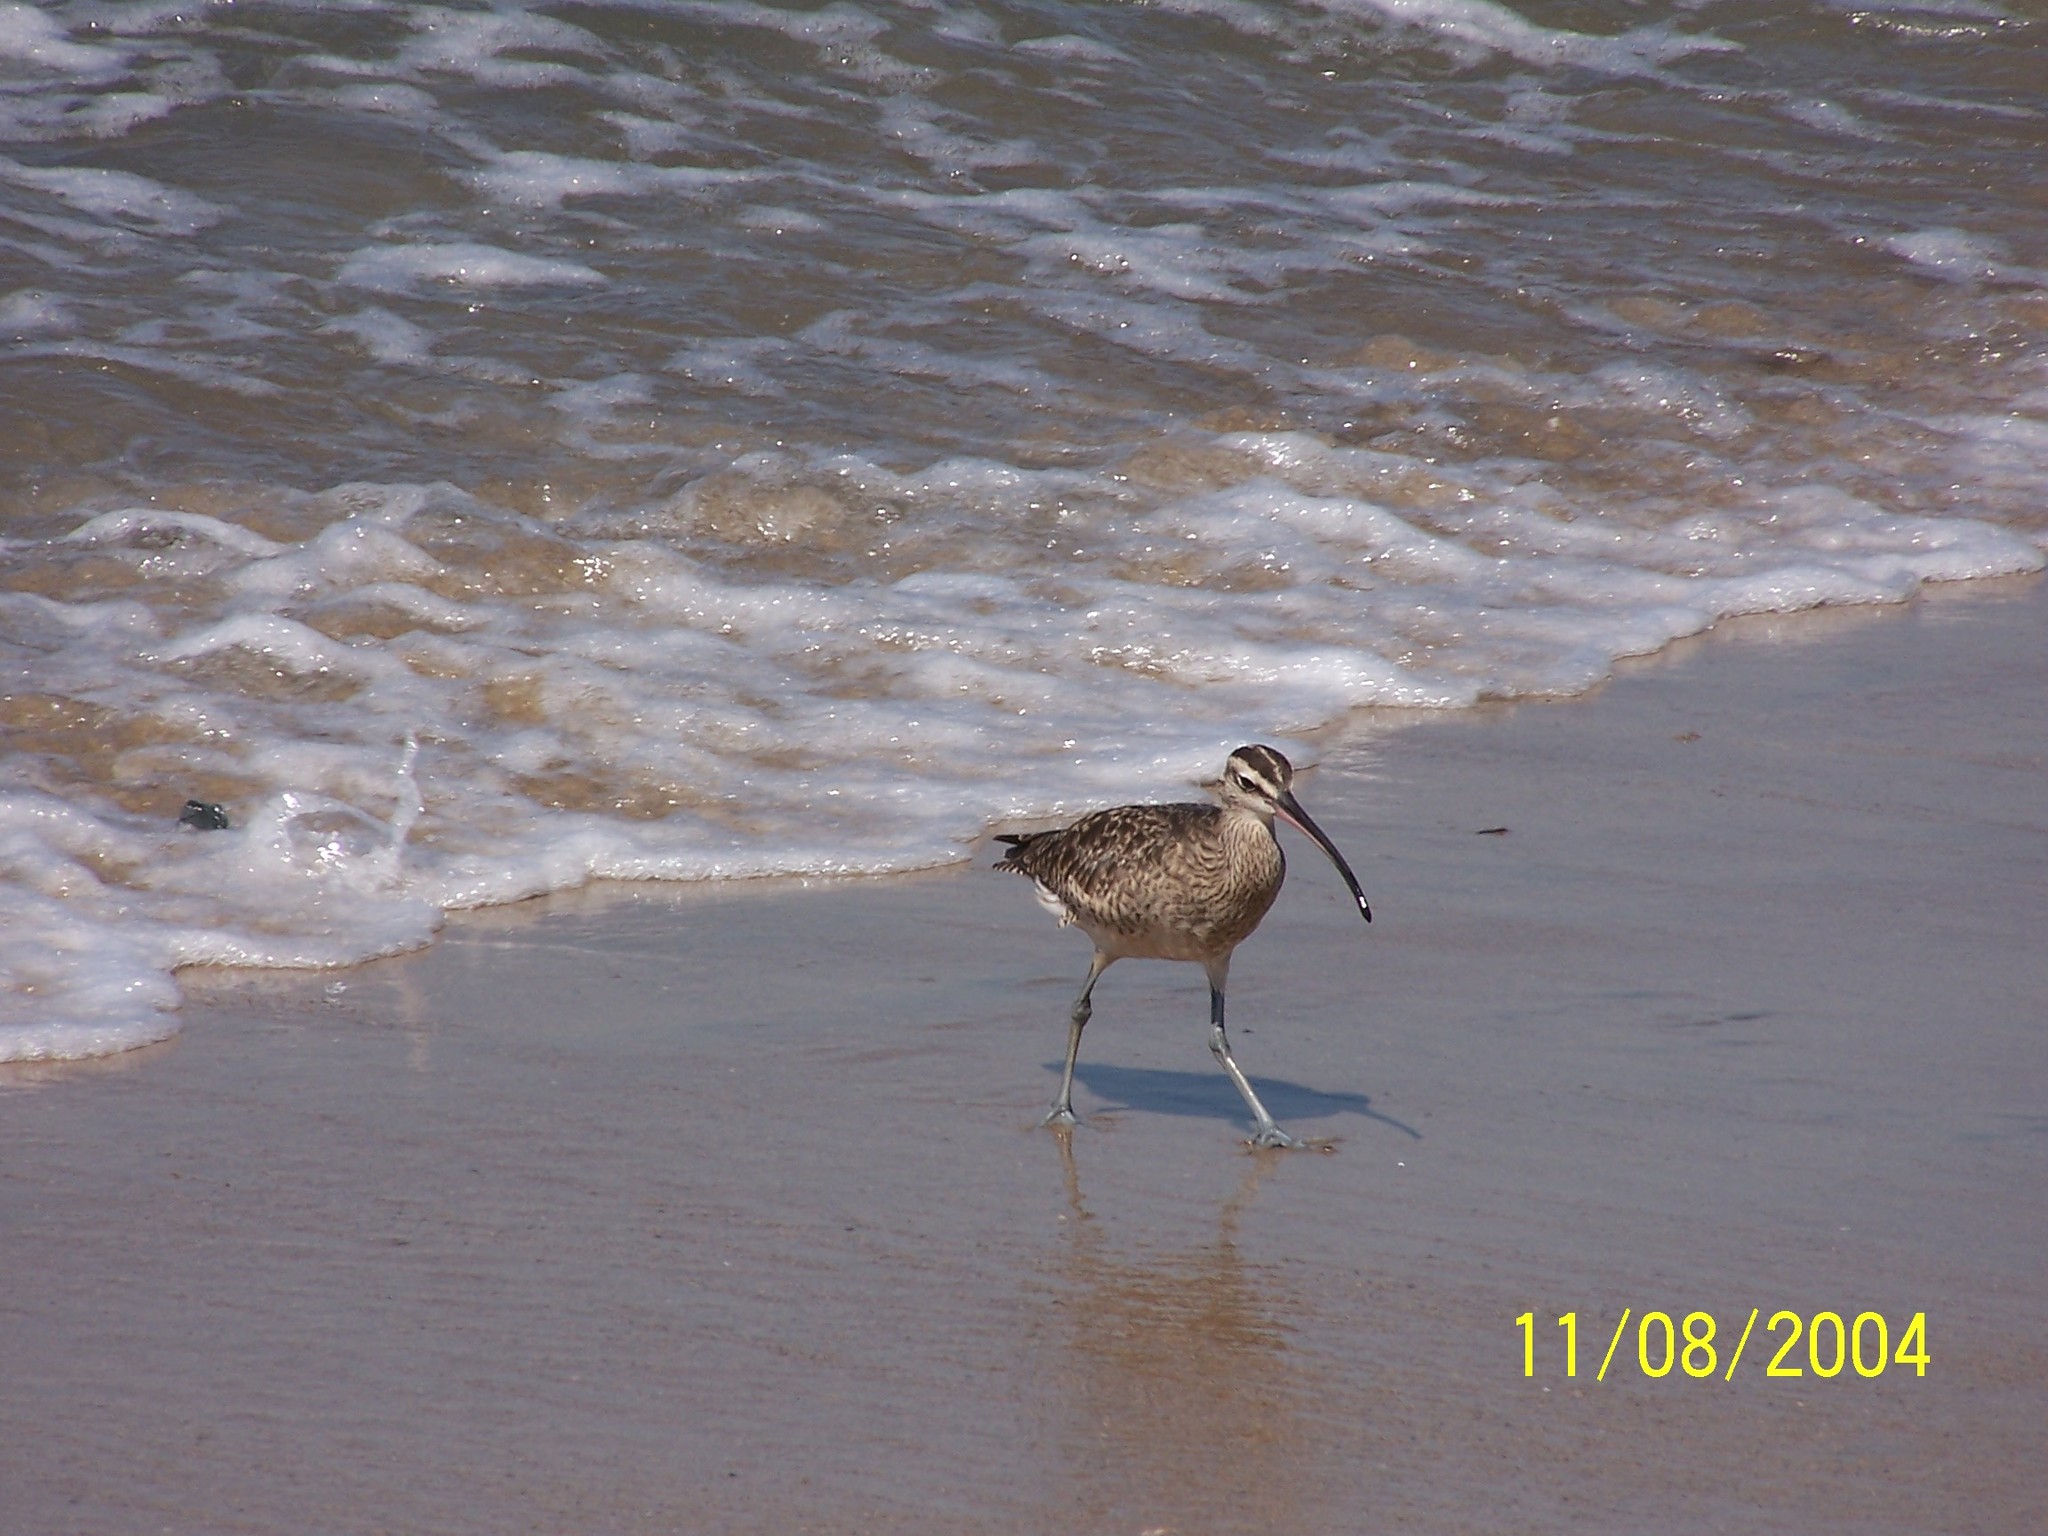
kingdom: Animalia
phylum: Chordata
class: Aves
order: Charadriiformes
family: Scolopacidae
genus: Numenius
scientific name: Numenius hudsonicus
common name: Hudsonian whimbrel
